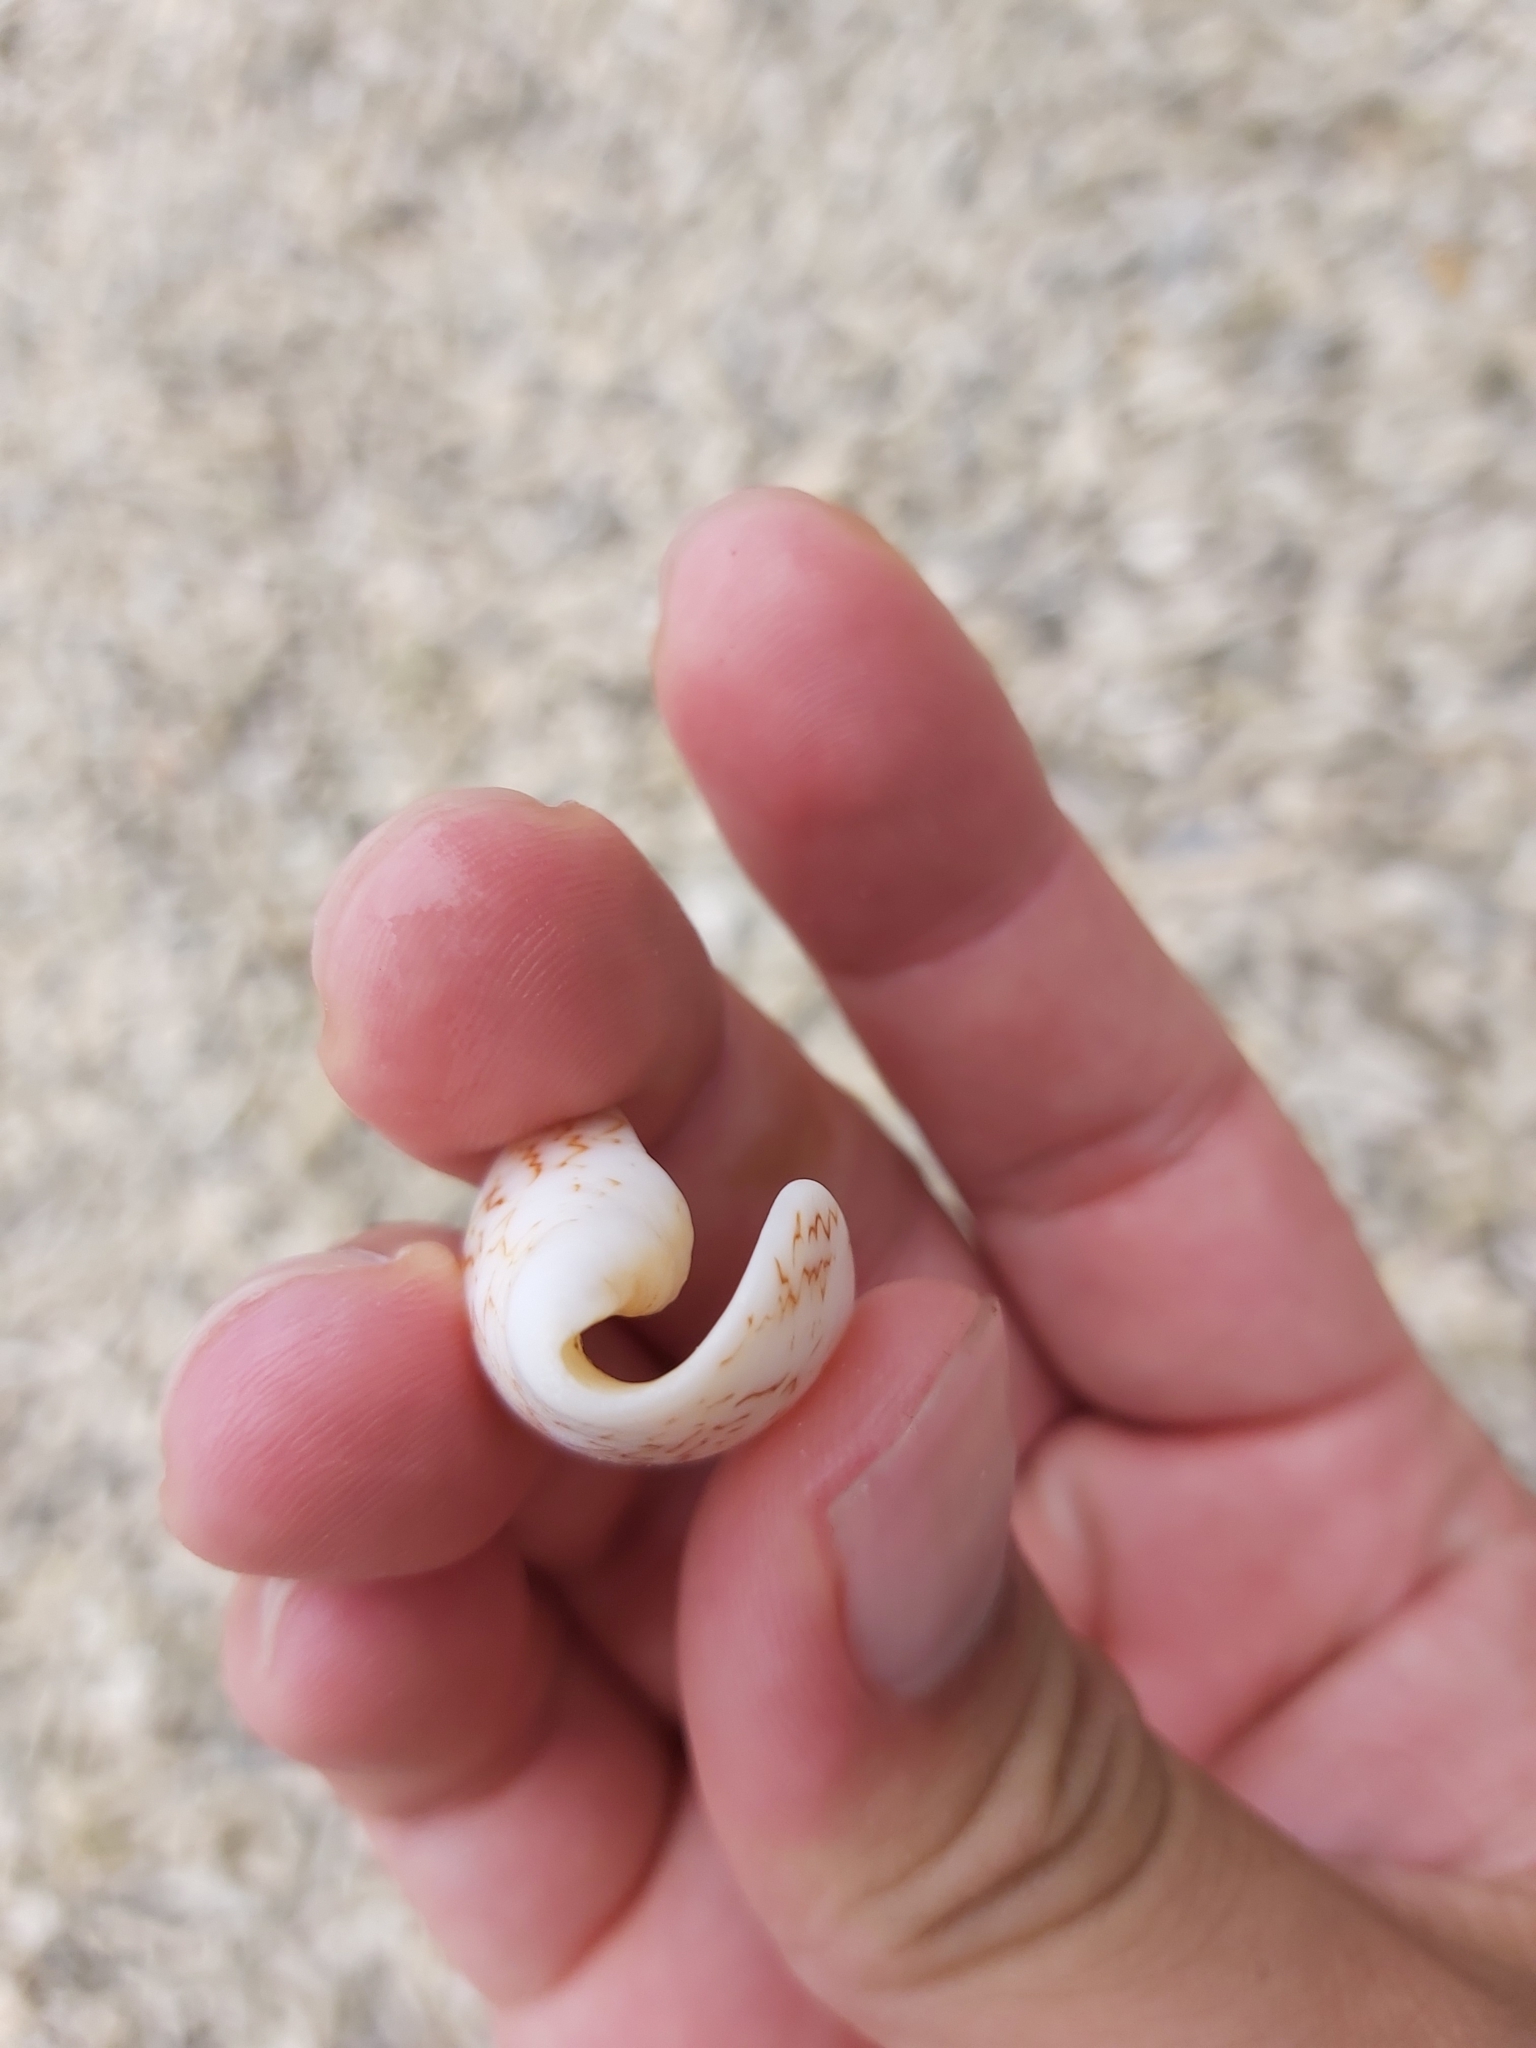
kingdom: Animalia
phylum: Mollusca
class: Gastropoda
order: Neogastropoda
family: Conidae
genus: Conus
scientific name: Conus textile
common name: Cloth-of-gold cone
